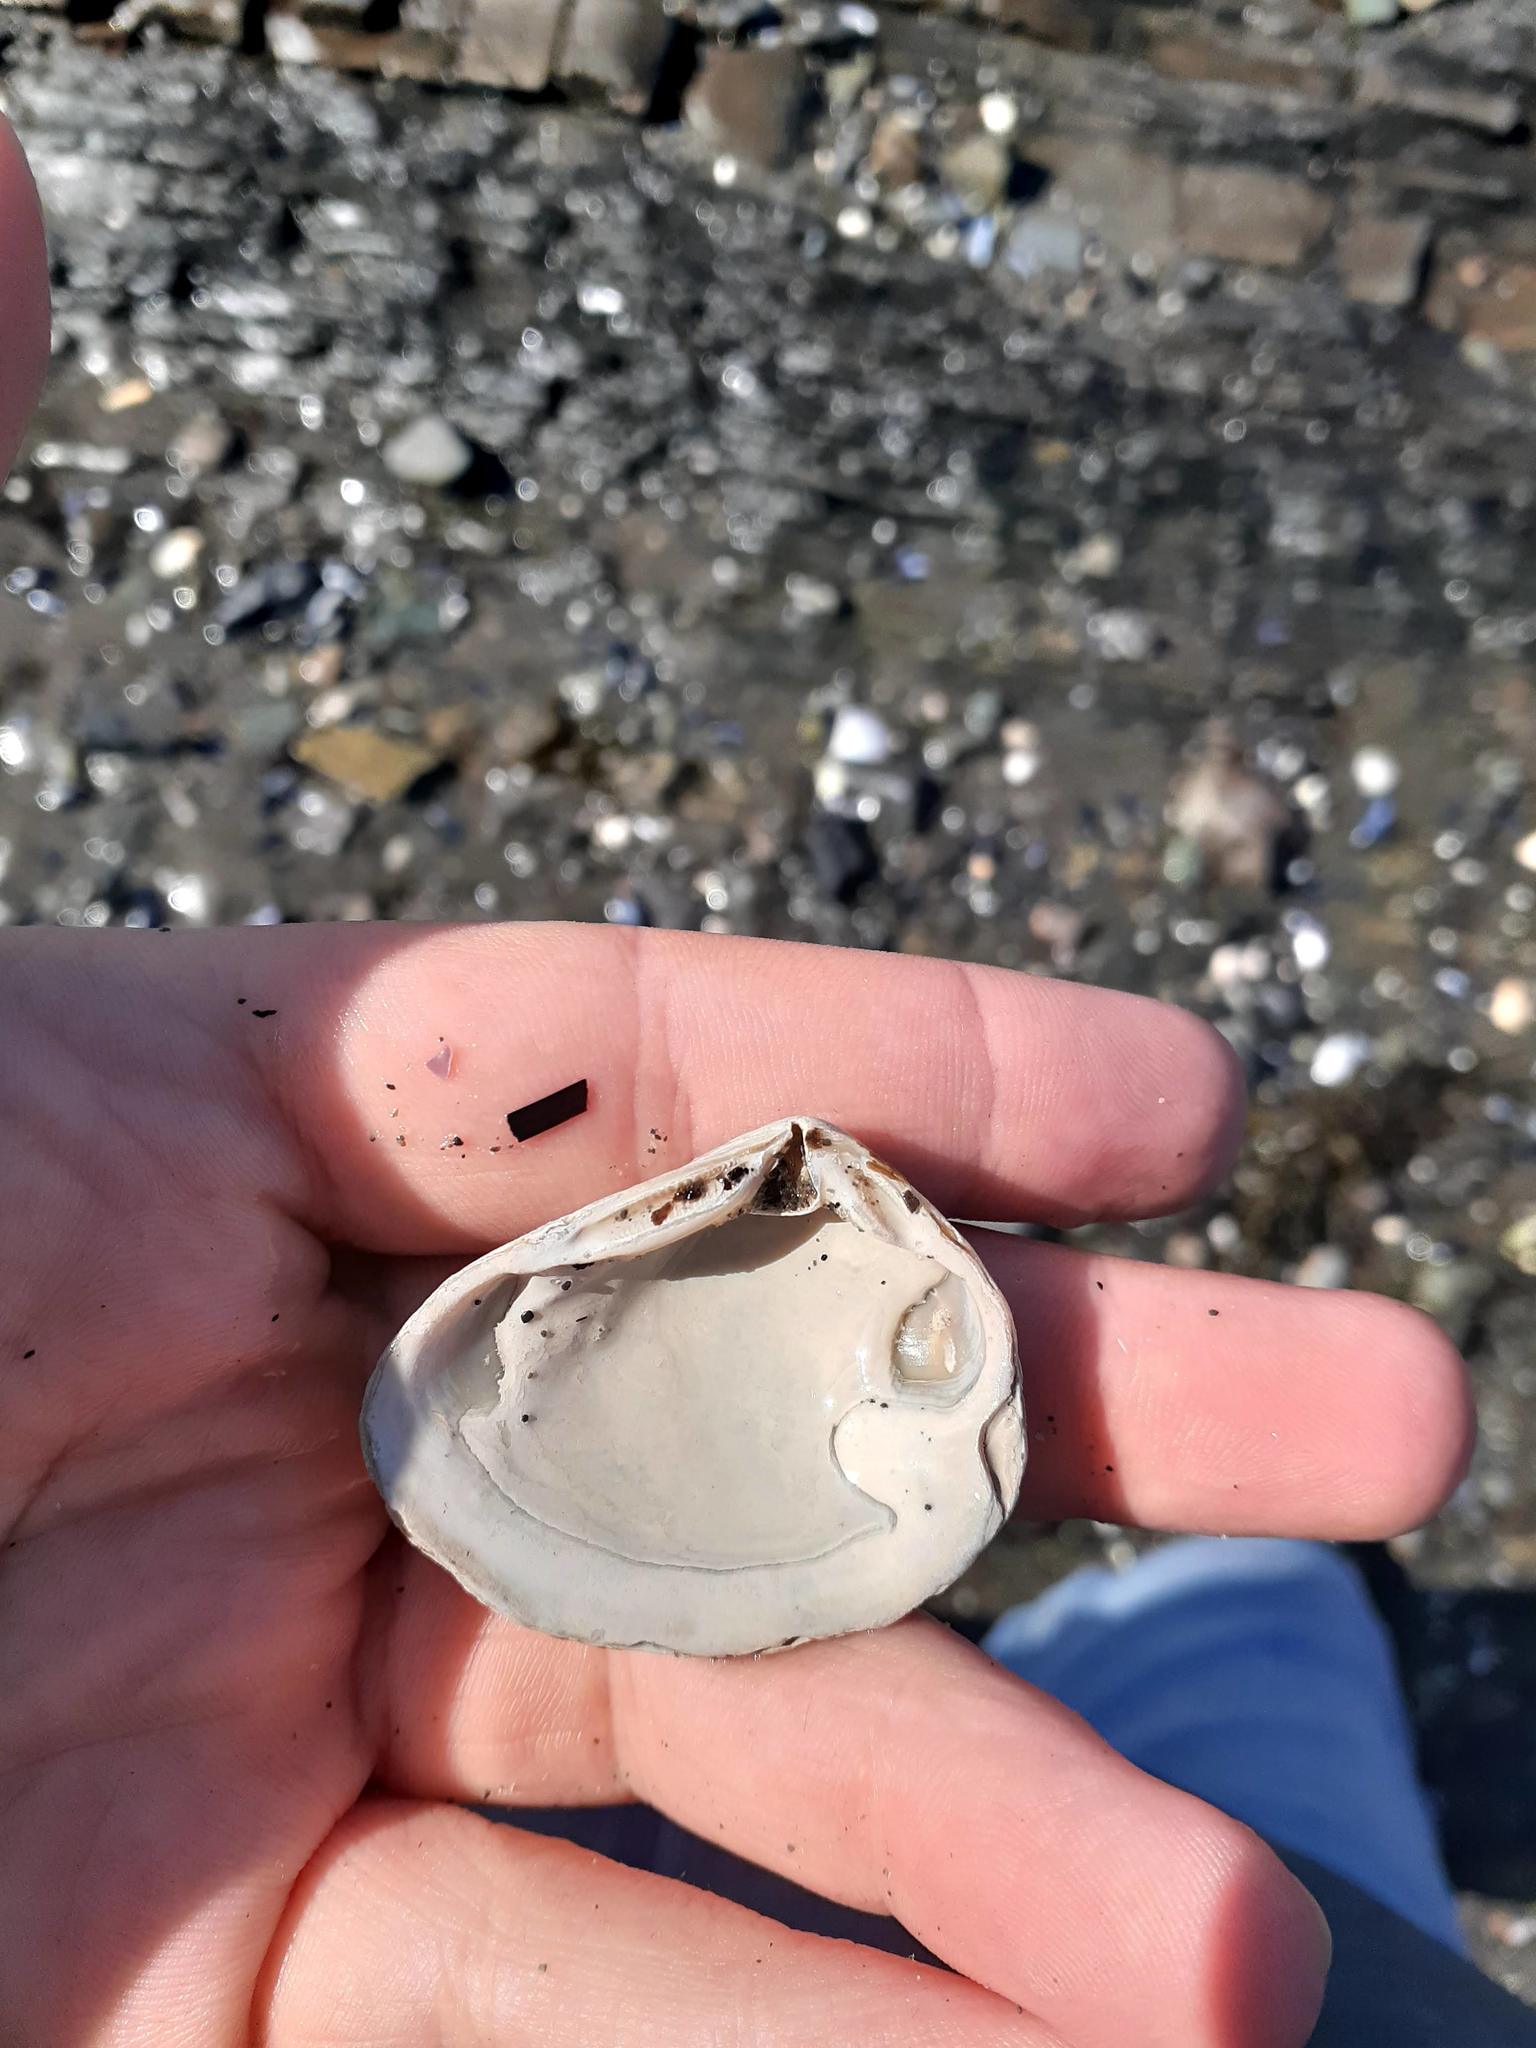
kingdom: Animalia
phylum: Mollusca
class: Bivalvia
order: Venerida
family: Mesodesmatidae
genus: Mesodesma
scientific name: Mesodesma arctatum
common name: Compressed clam
